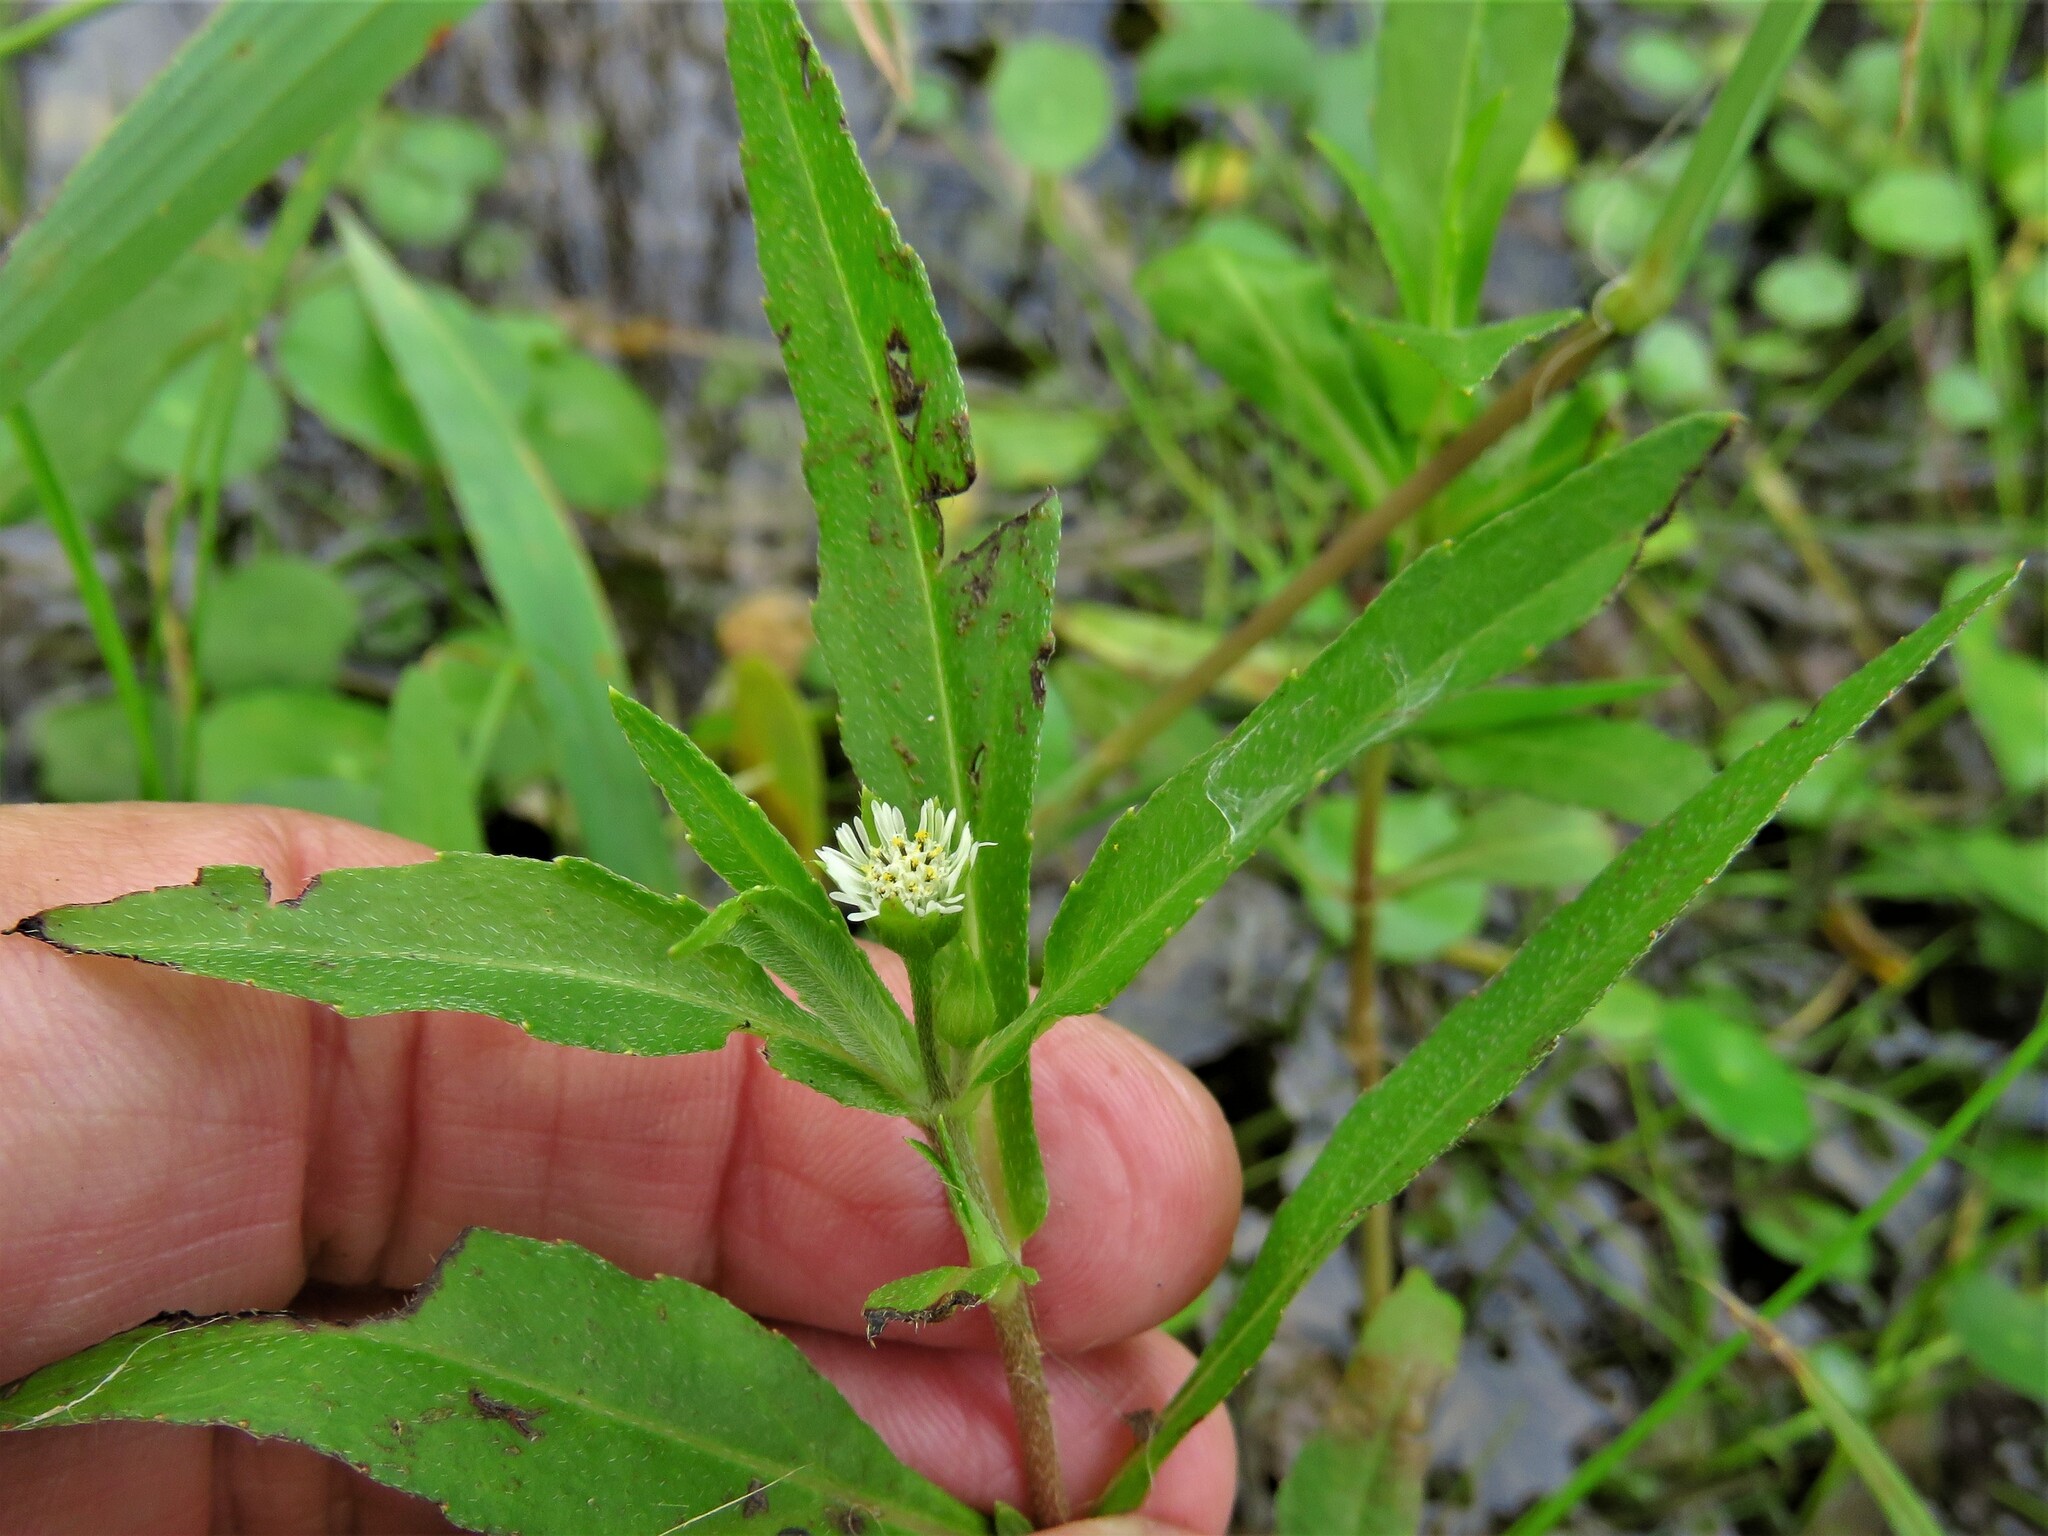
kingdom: Plantae
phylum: Tracheophyta
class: Magnoliopsida
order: Asterales
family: Asteraceae
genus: Eclipta
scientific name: Eclipta prostrata
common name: False daisy
